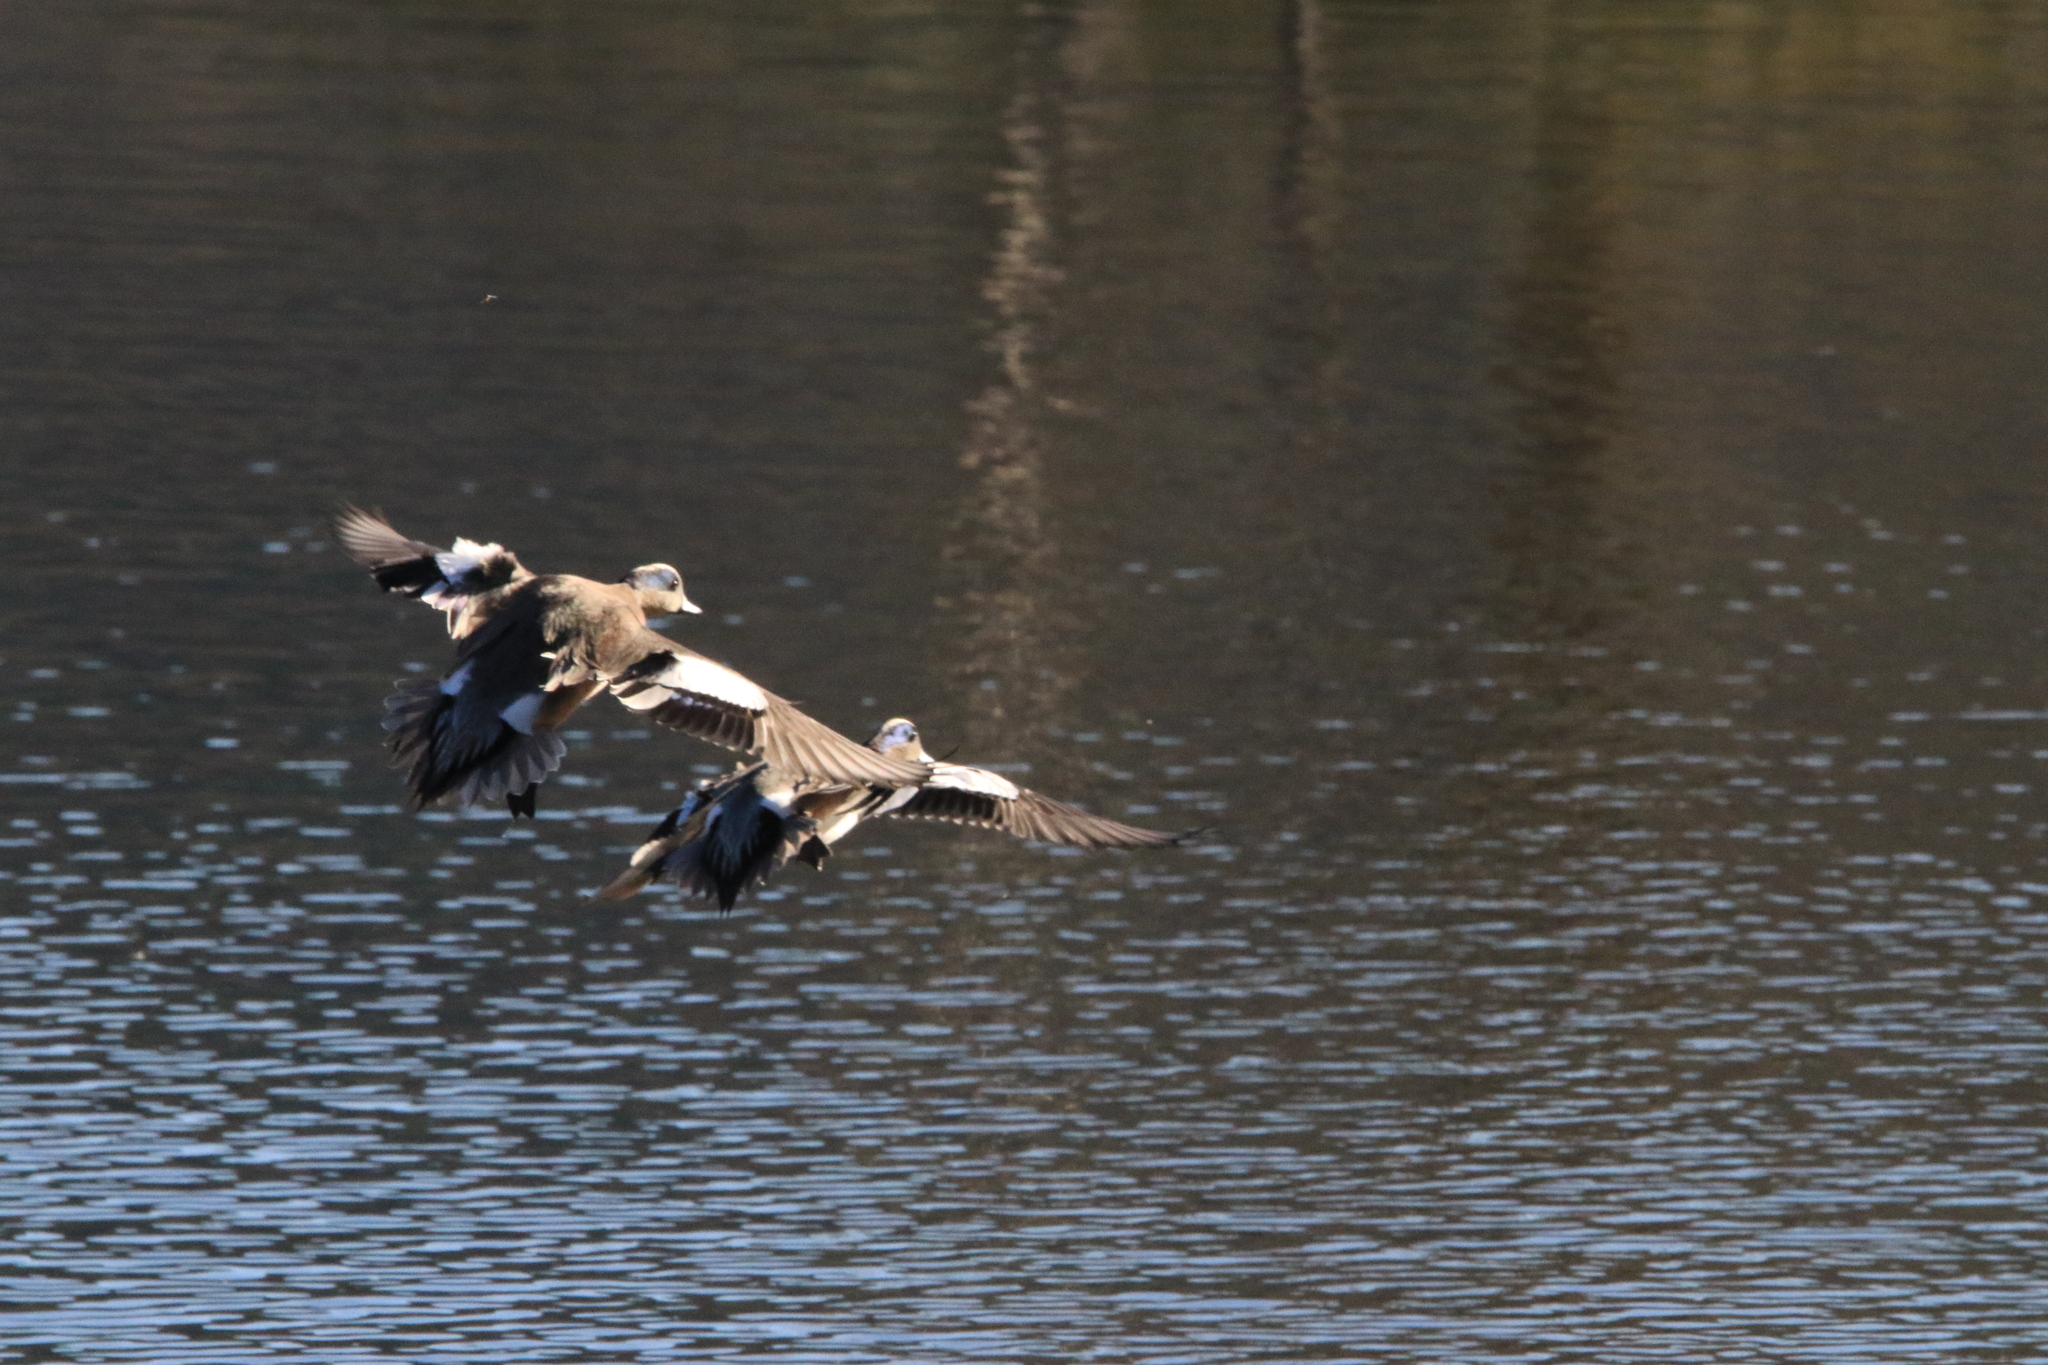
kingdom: Animalia
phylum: Chordata
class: Aves
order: Anseriformes
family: Anatidae
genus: Mareca
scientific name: Mareca americana
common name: American wigeon
